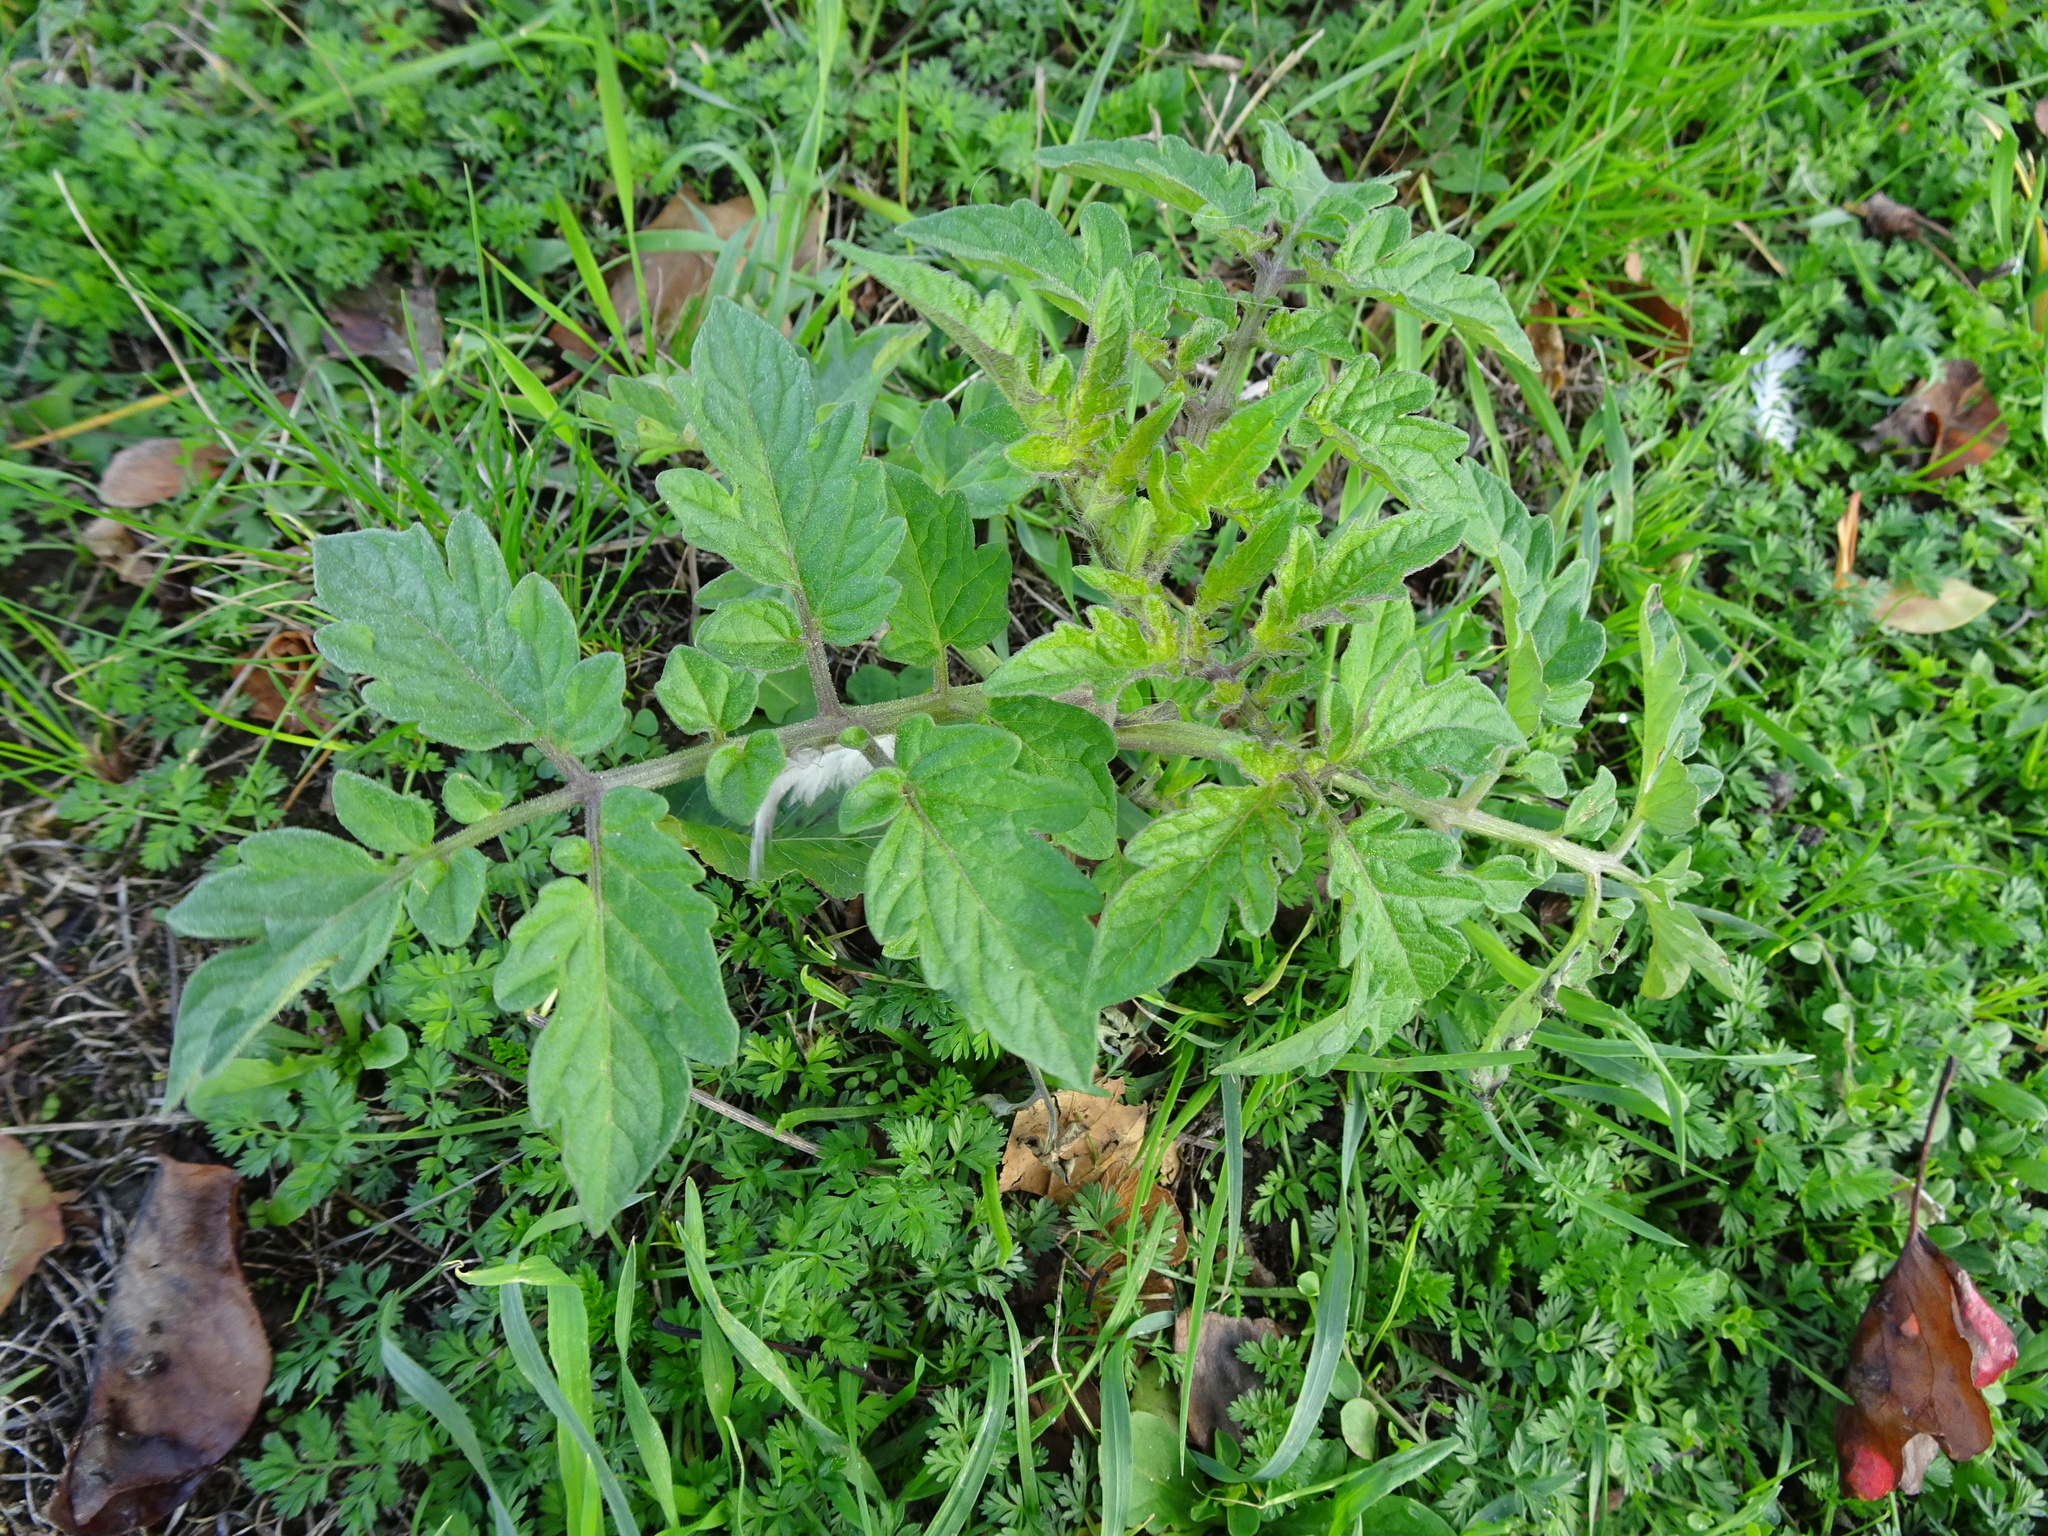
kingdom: Plantae
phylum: Tracheophyta
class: Magnoliopsida
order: Solanales
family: Solanaceae
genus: Solanum
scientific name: Solanum lycopersicum
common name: Garden tomato
